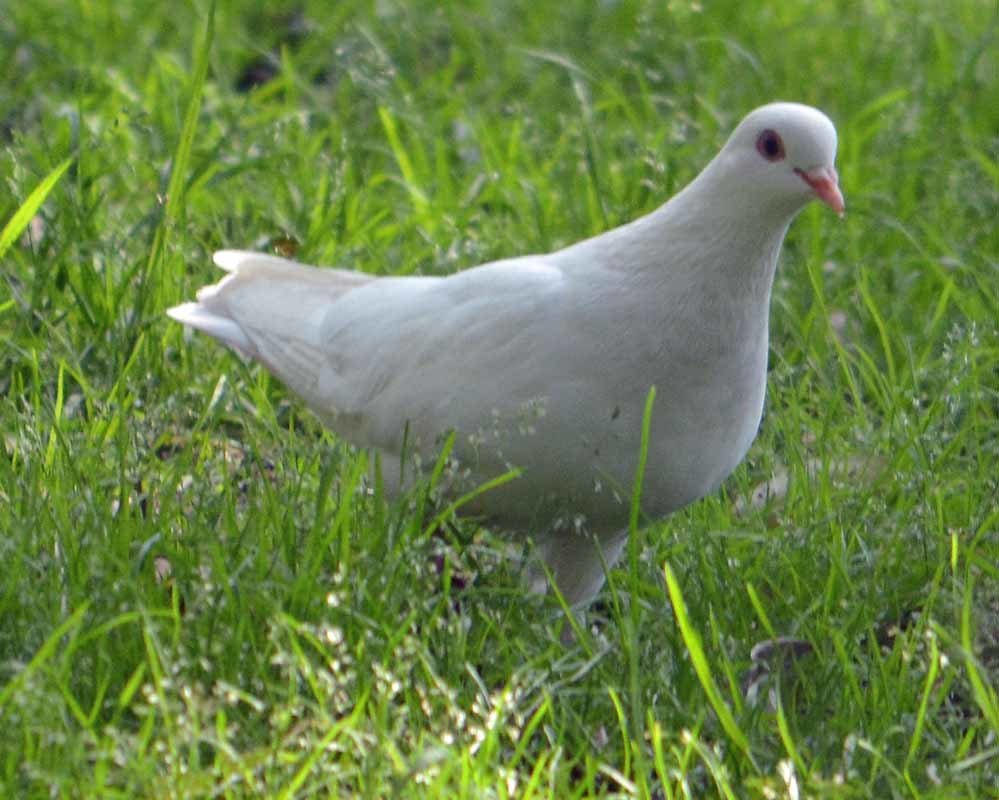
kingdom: Animalia
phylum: Chordata
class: Aves
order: Columbiformes
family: Columbidae
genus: Columba
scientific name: Columba livia
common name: Rock pigeon
